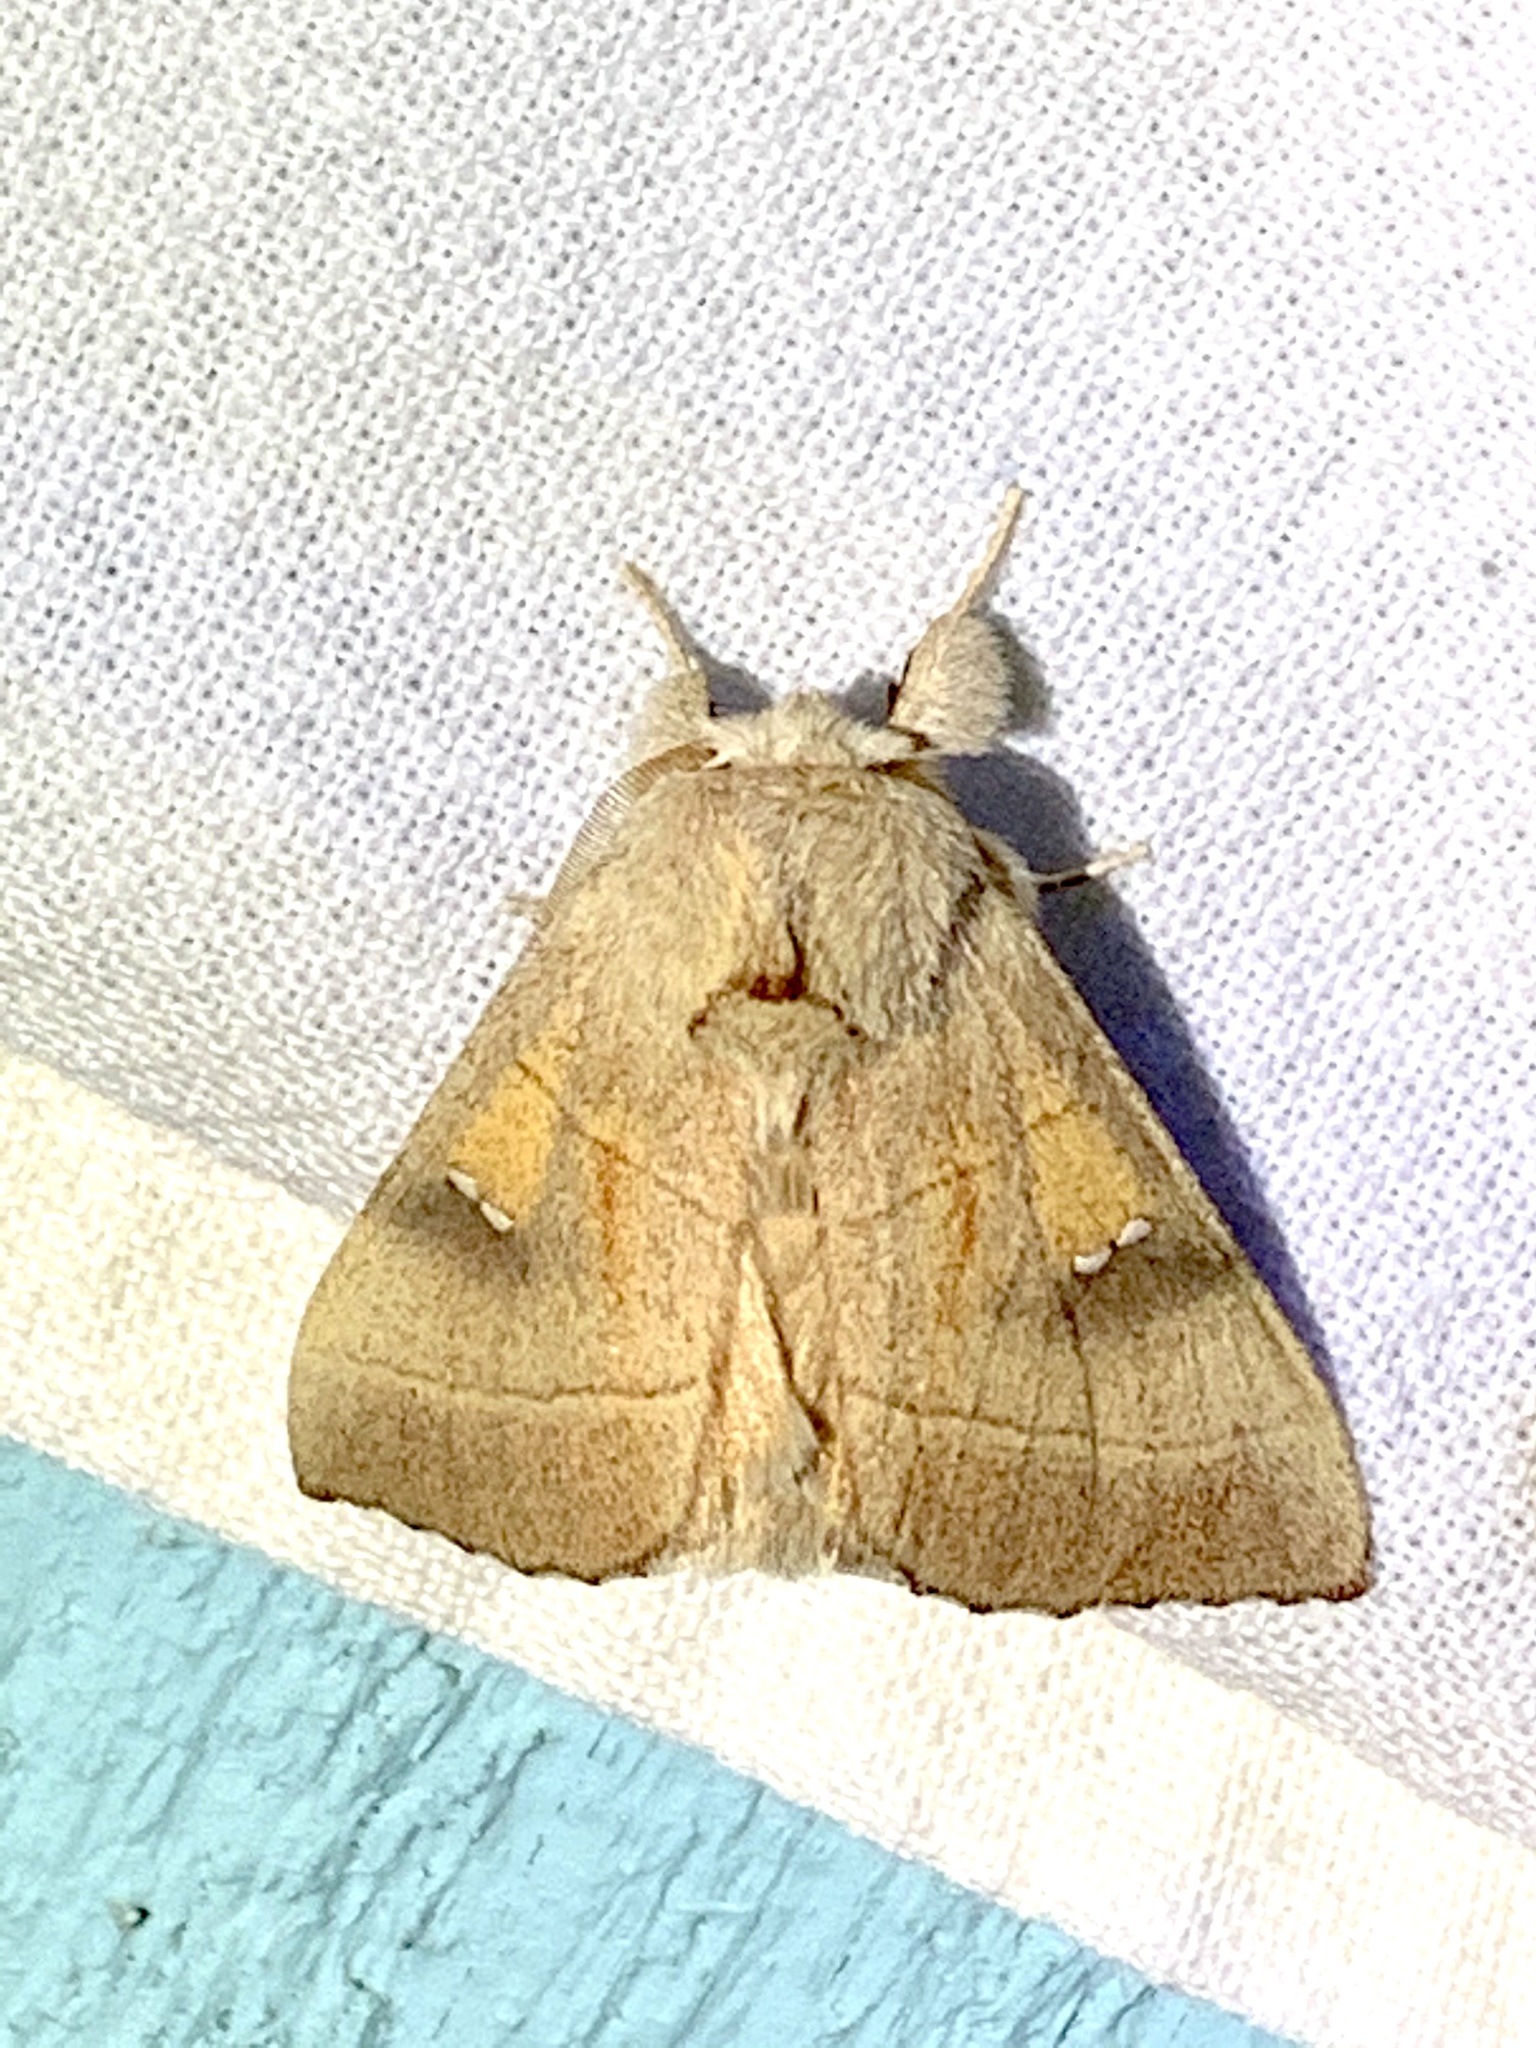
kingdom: Animalia
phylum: Arthropoda
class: Insecta
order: Lepidoptera
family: Notodontidae
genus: Nadata
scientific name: Nadata gibbosa
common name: White-dotted prominent
